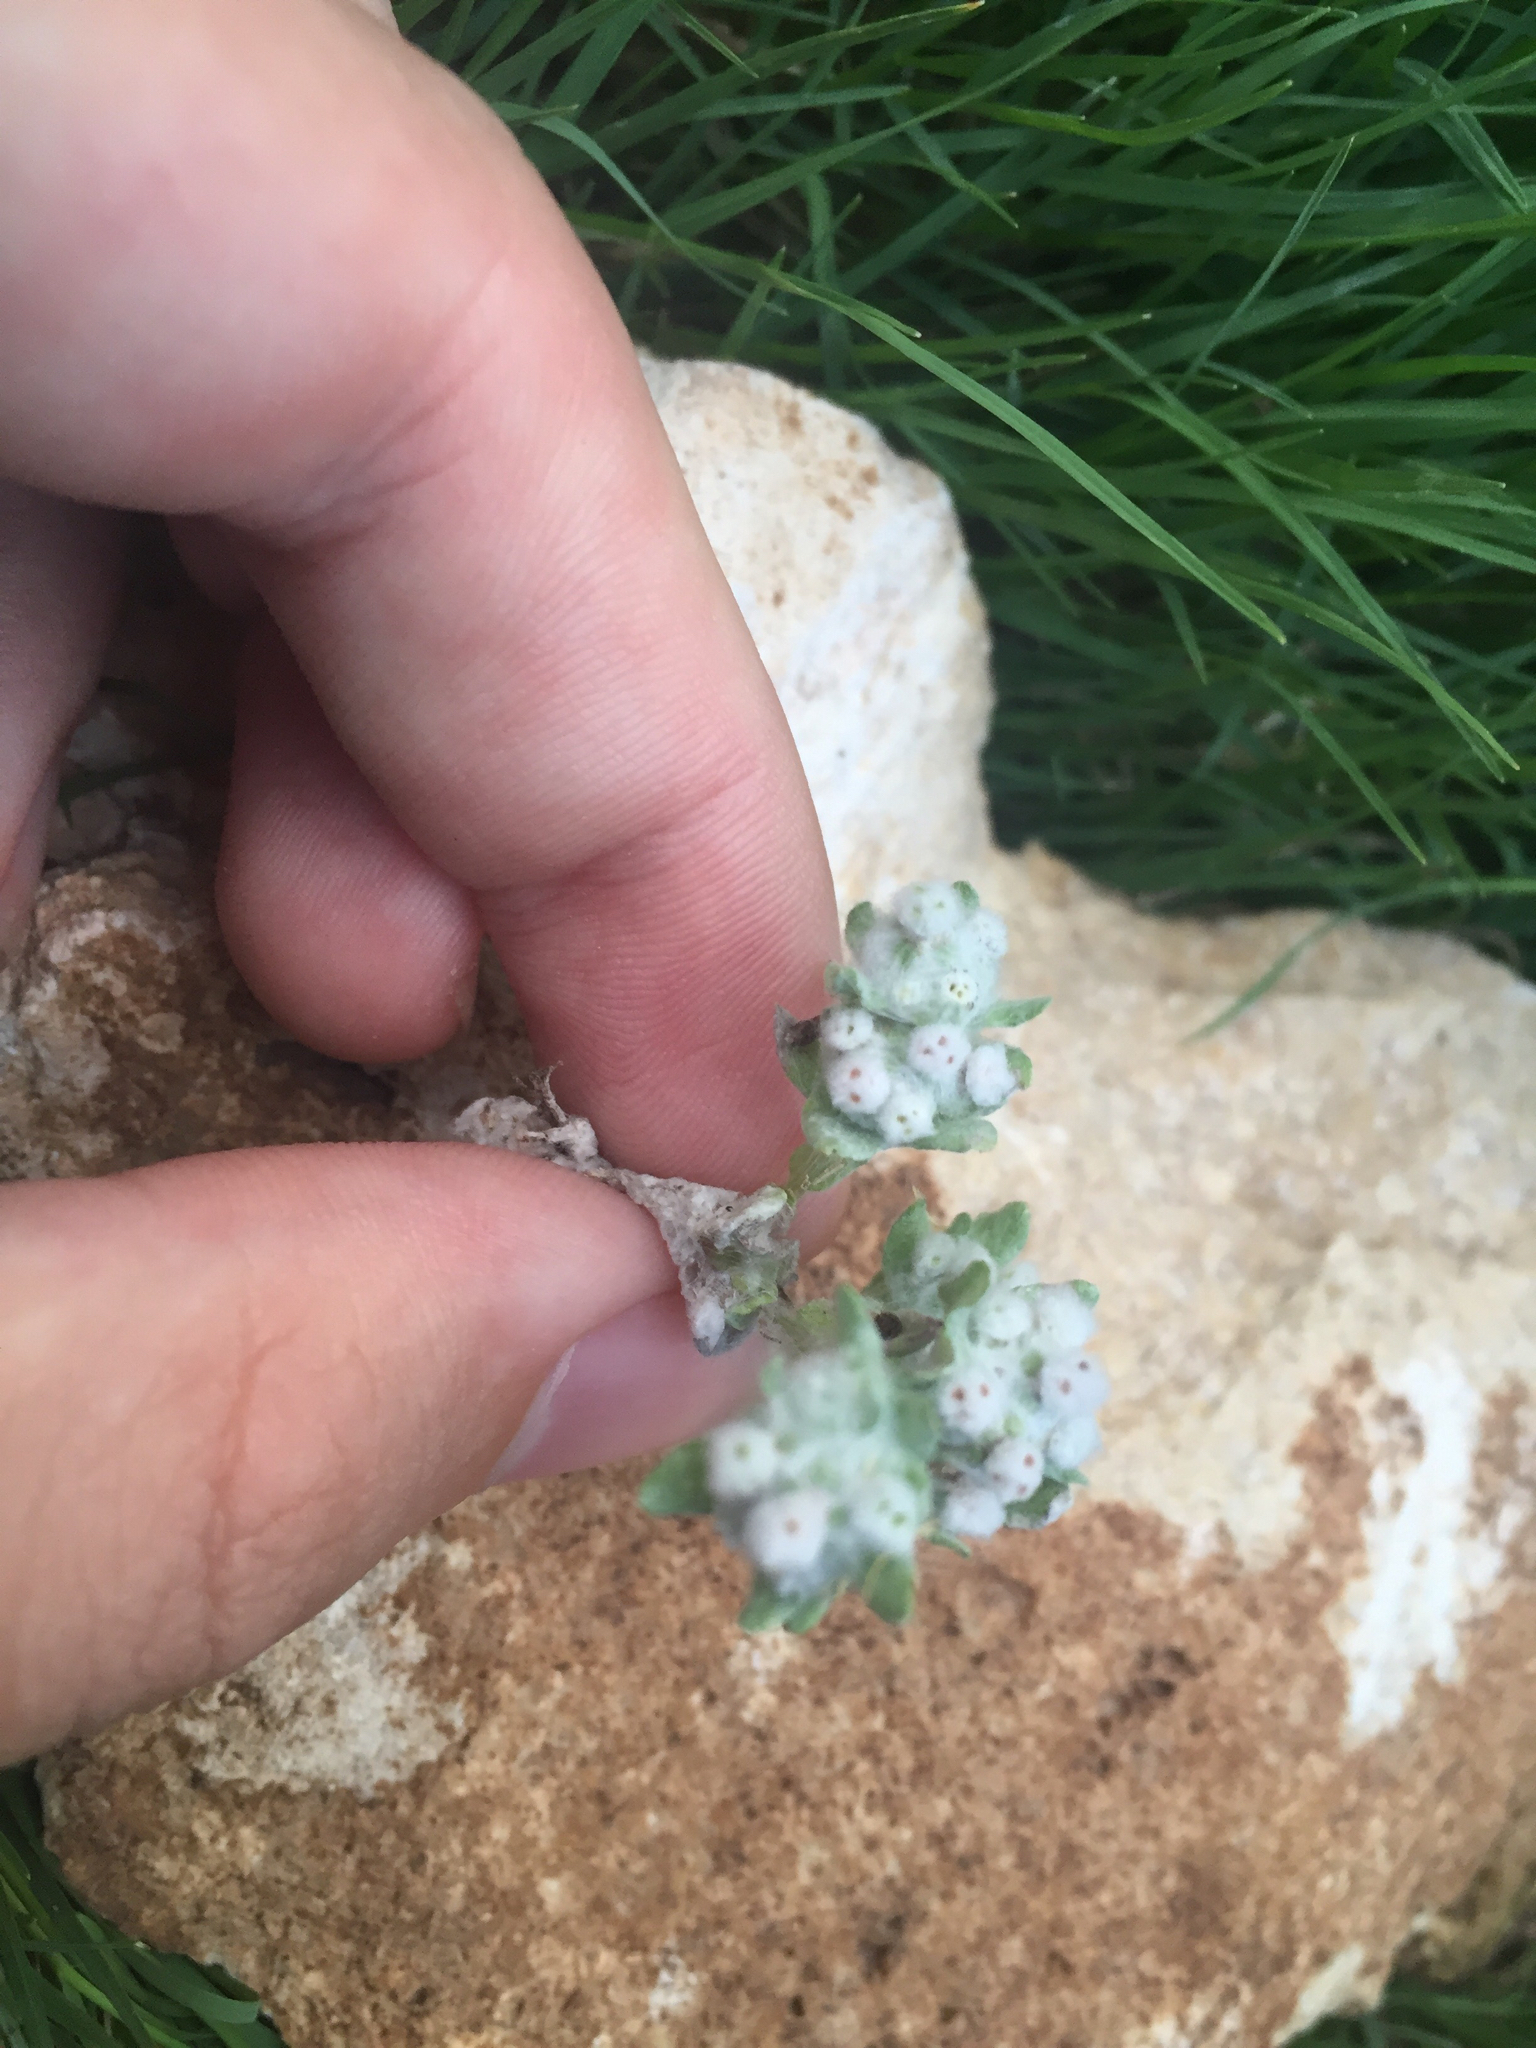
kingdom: Plantae
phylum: Tracheophyta
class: Magnoliopsida
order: Asterales
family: Asteraceae
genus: Diaperia
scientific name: Diaperia verna
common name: Many-stem rabbit-tobacco
